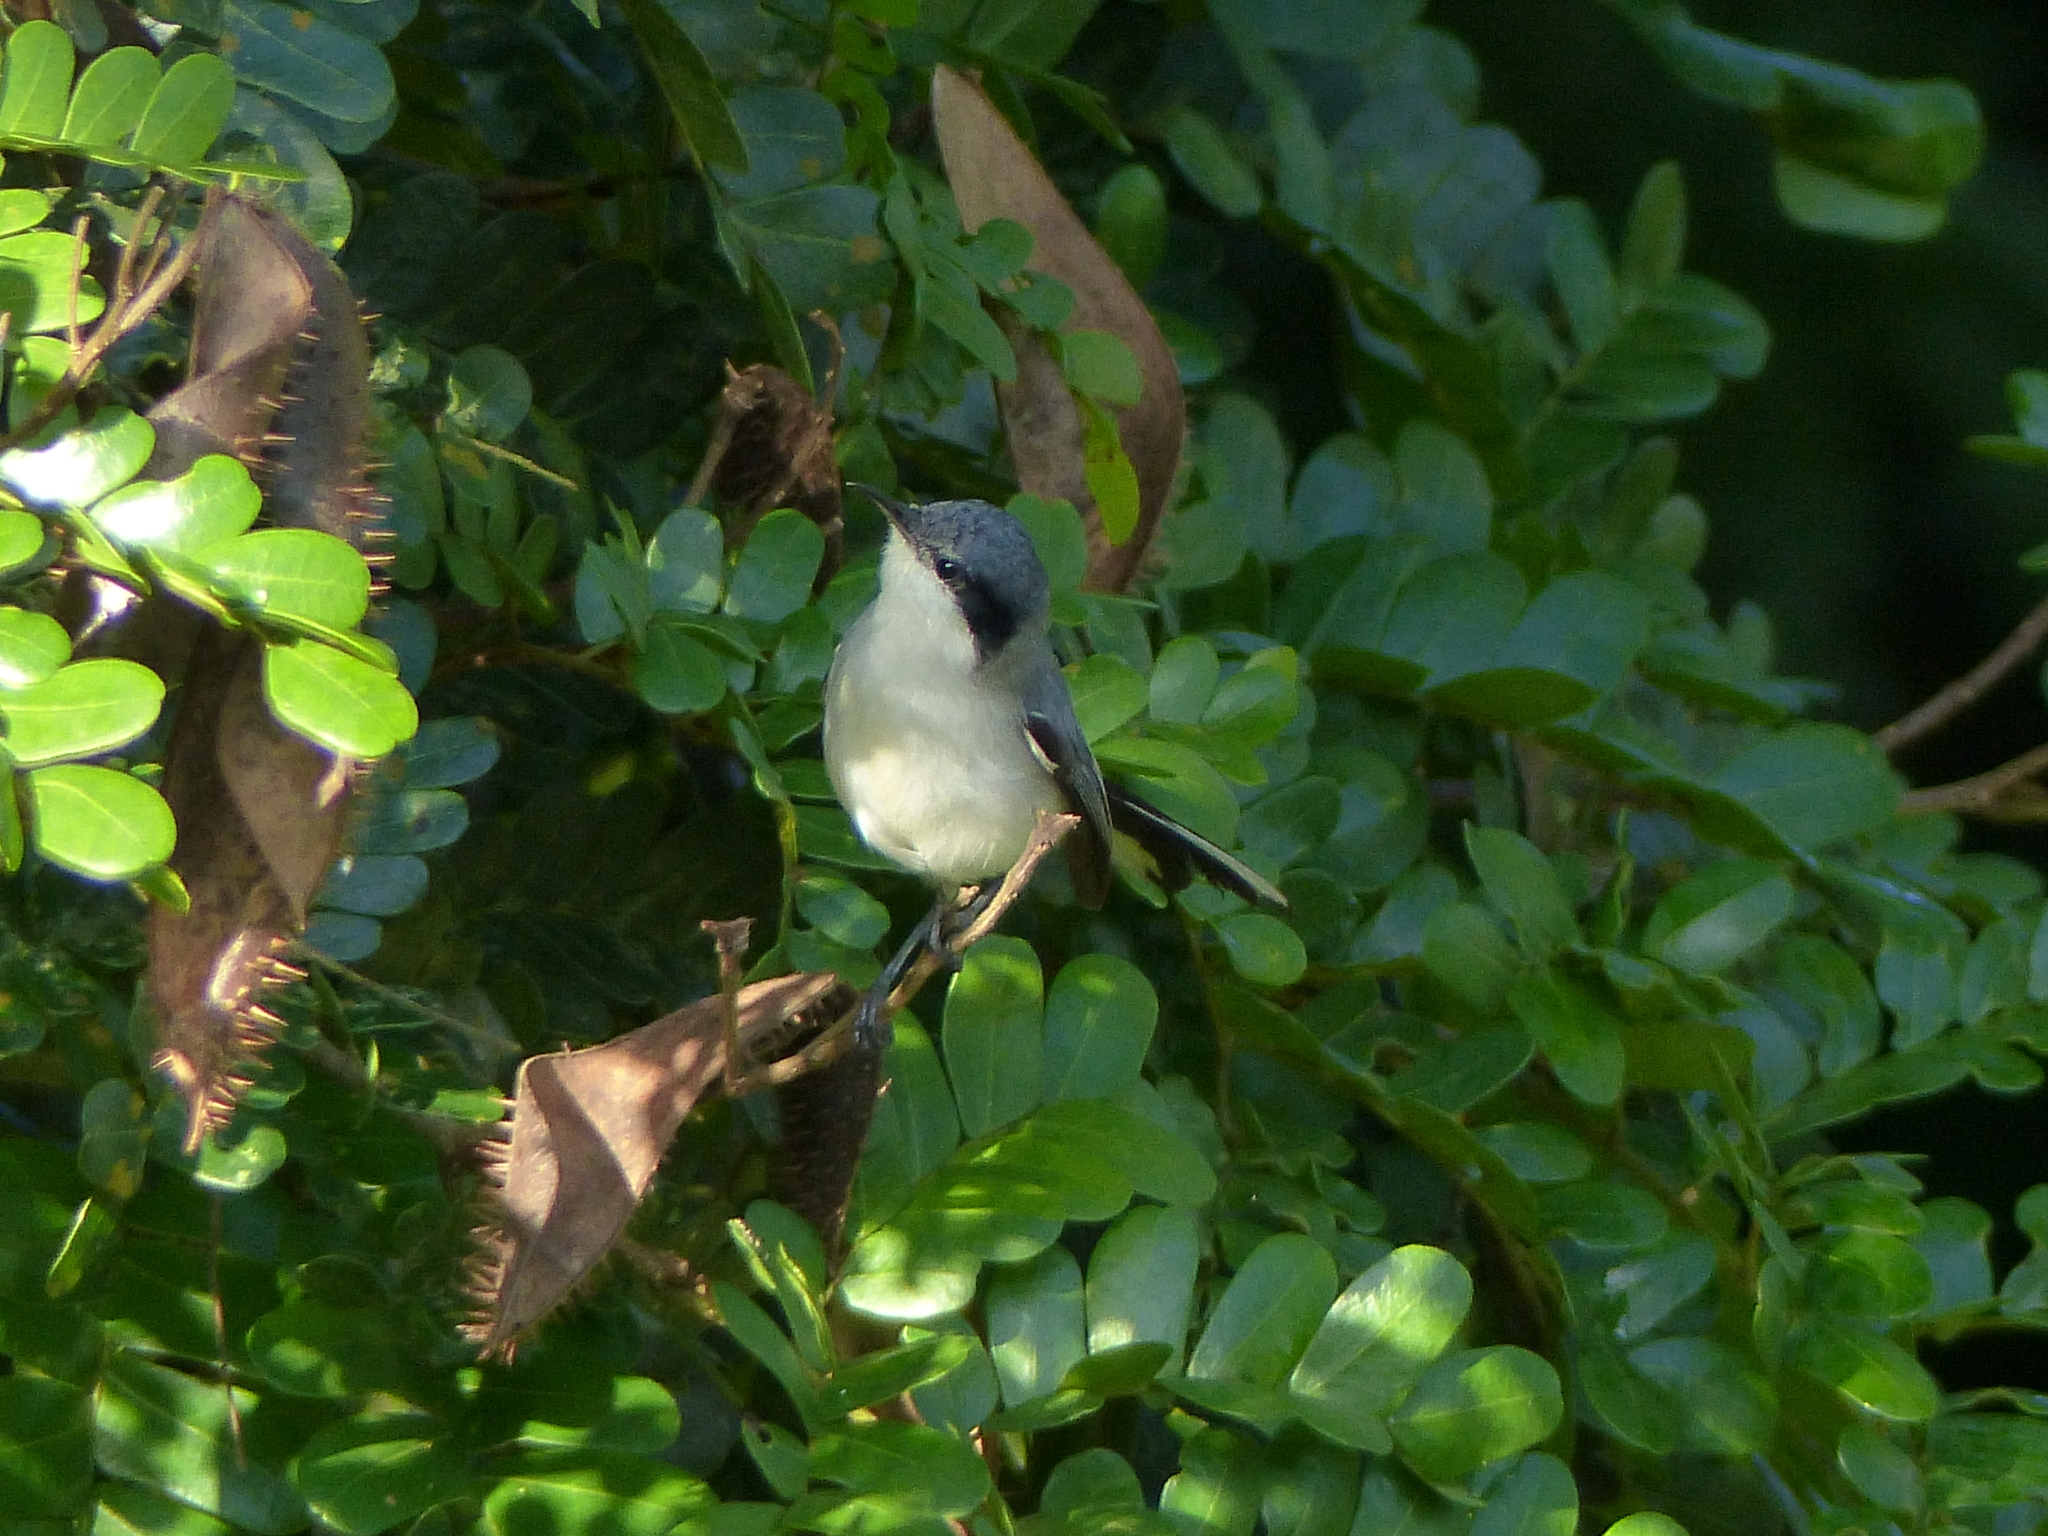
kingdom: Animalia
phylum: Chordata
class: Aves
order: Passeriformes
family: Polioptilidae
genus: Polioptila
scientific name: Polioptila plumbea
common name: Tropical gnatcatcher
